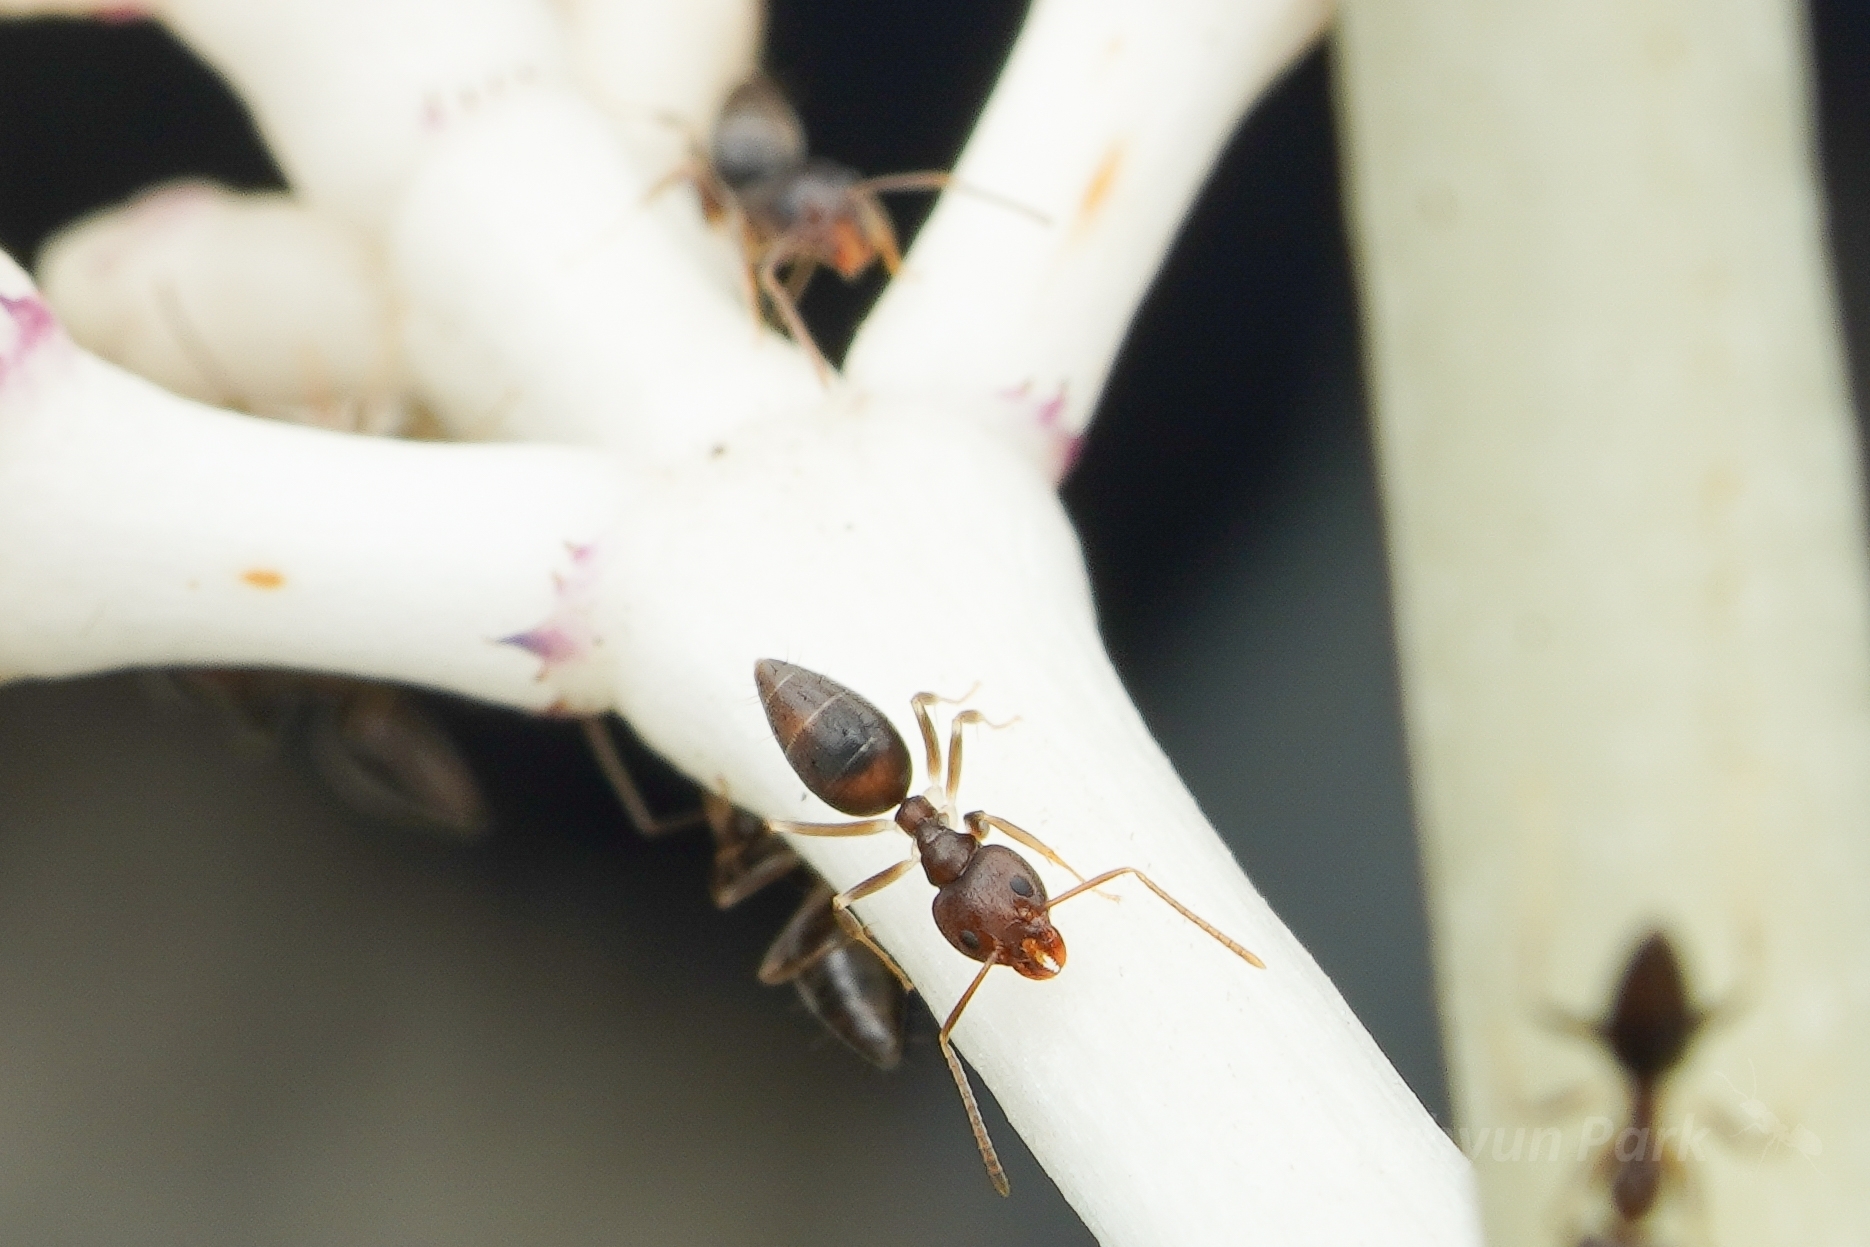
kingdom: Animalia
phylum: Arthropoda
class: Insecta
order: Hymenoptera
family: Formicidae
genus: Technomyrmex
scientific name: Technomyrmex
